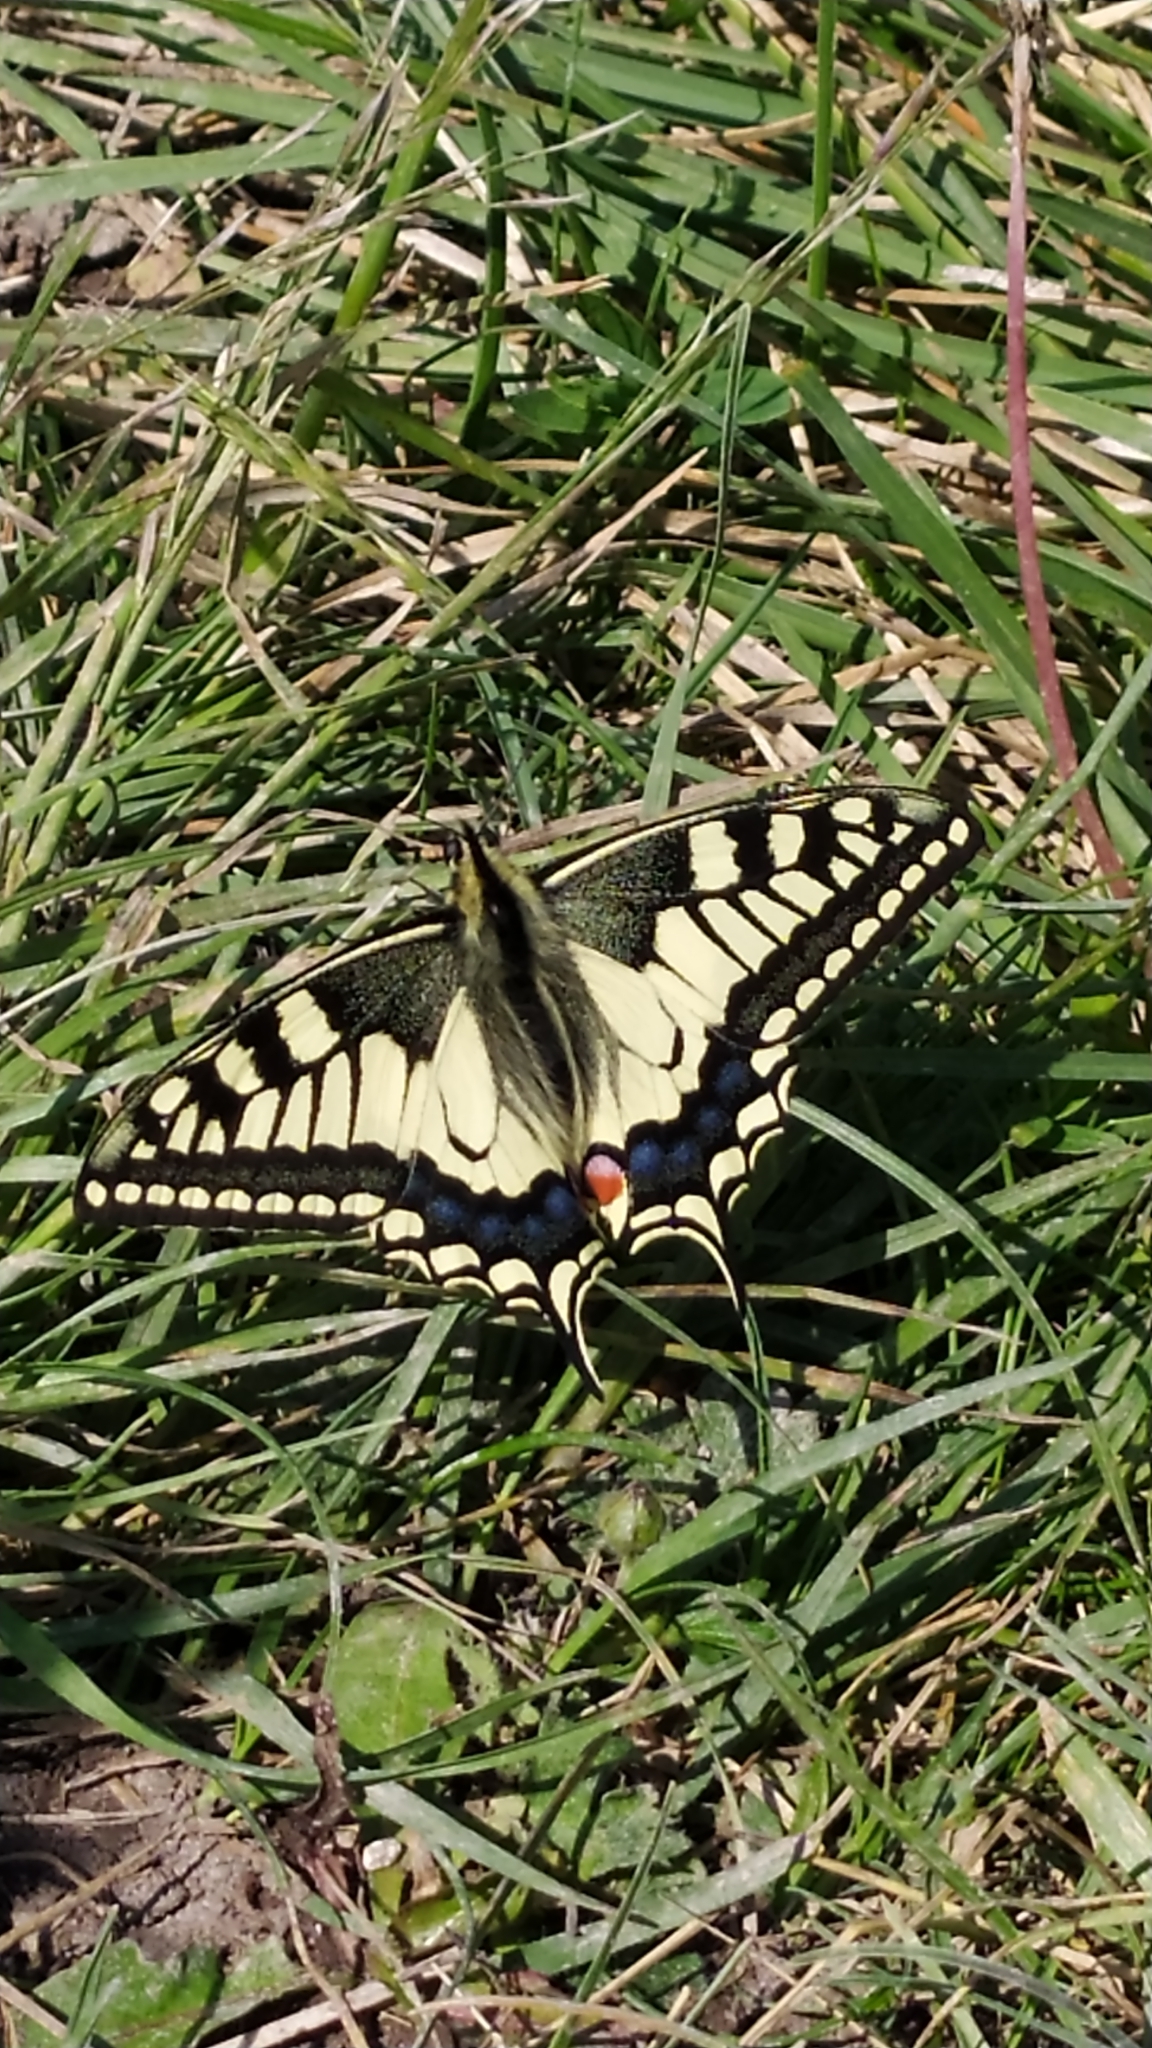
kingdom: Animalia
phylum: Arthropoda
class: Insecta
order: Lepidoptera
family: Papilionidae
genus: Papilio
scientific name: Papilio machaon
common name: Swallowtail
